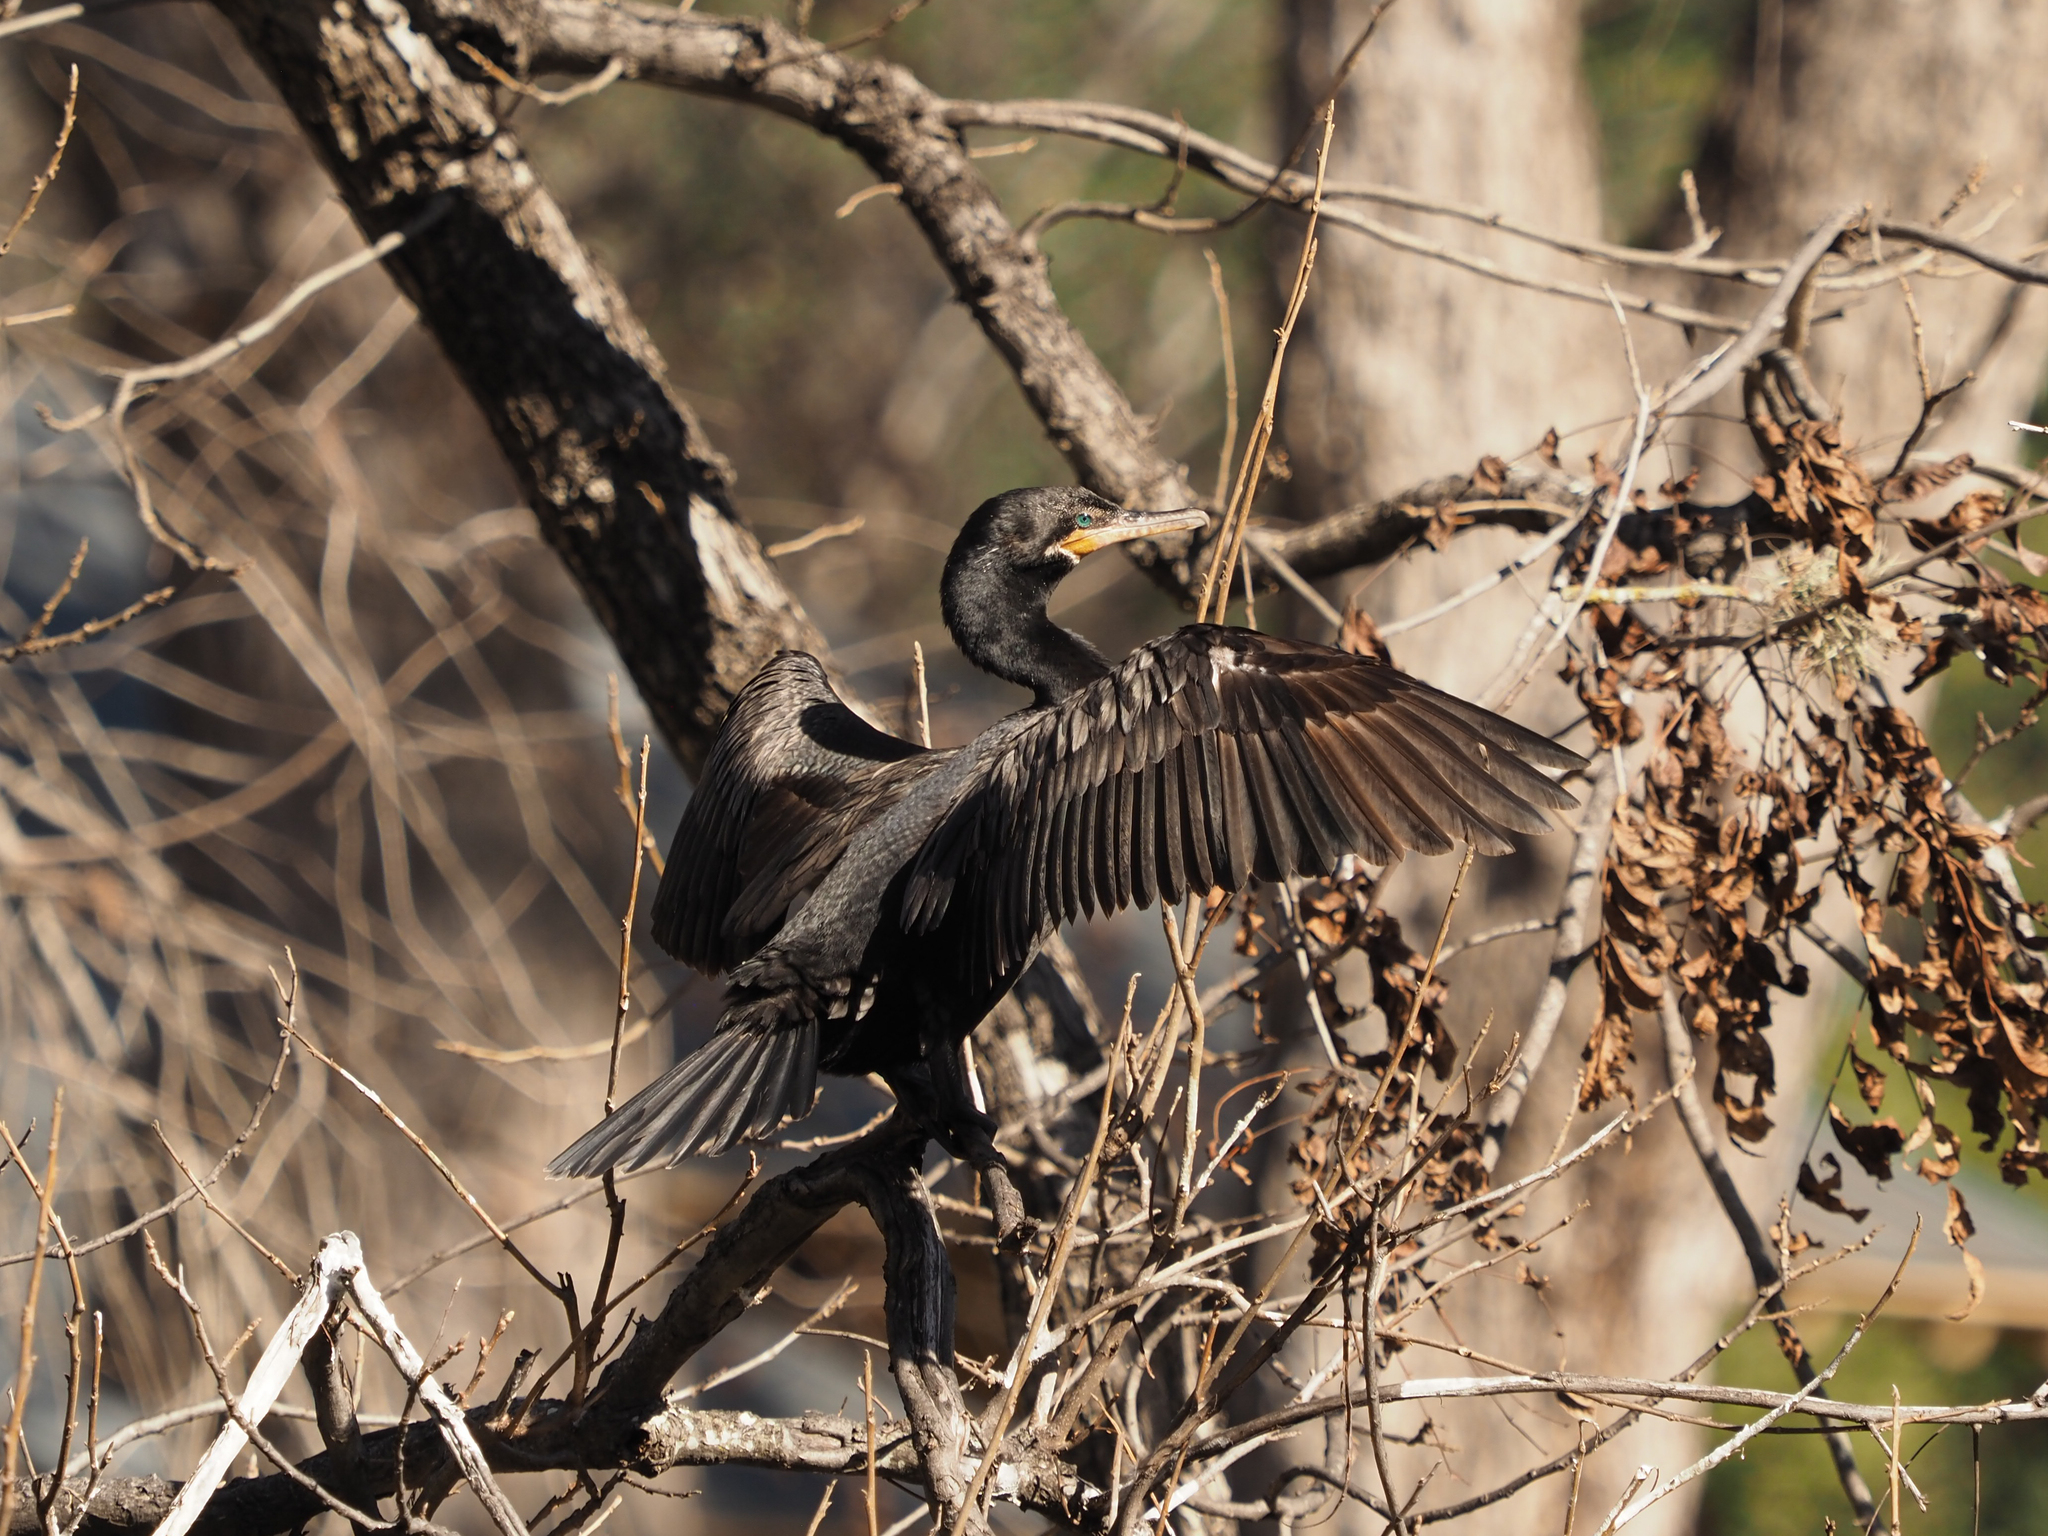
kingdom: Animalia
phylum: Chordata
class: Aves
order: Suliformes
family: Phalacrocoracidae
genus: Phalacrocorax
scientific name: Phalacrocorax brasilianus
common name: Neotropic cormorant
